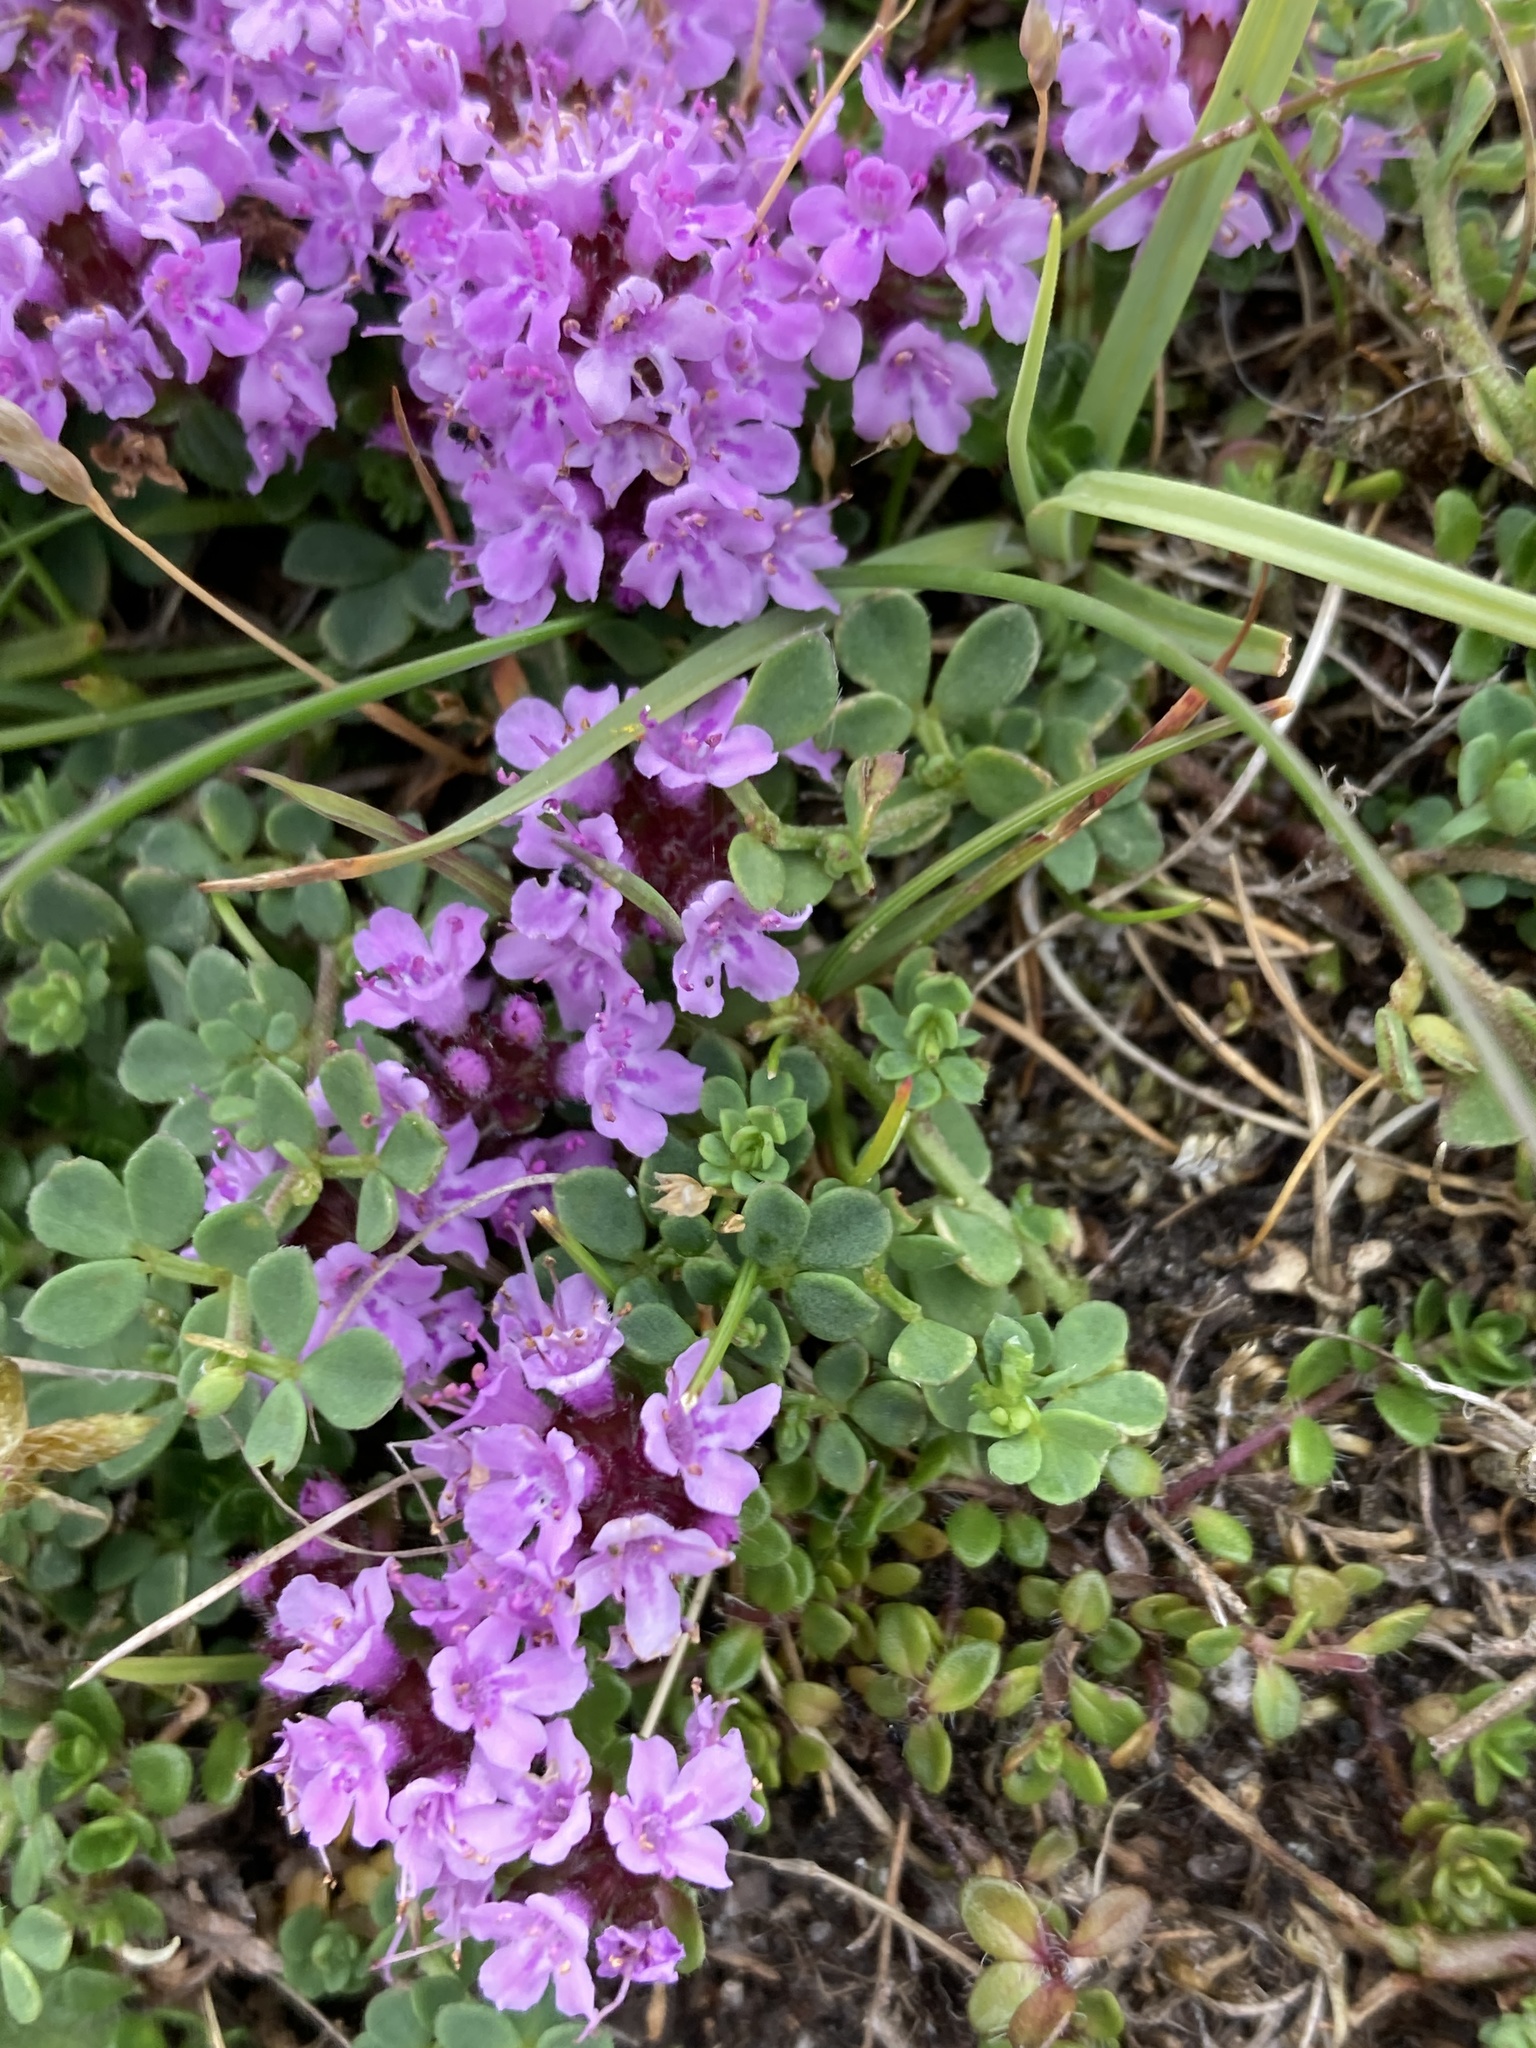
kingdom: Plantae
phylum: Tracheophyta
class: Magnoliopsida
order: Lamiales
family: Lamiaceae
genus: Thymus
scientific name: Thymus praecox
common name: Wild thyme
